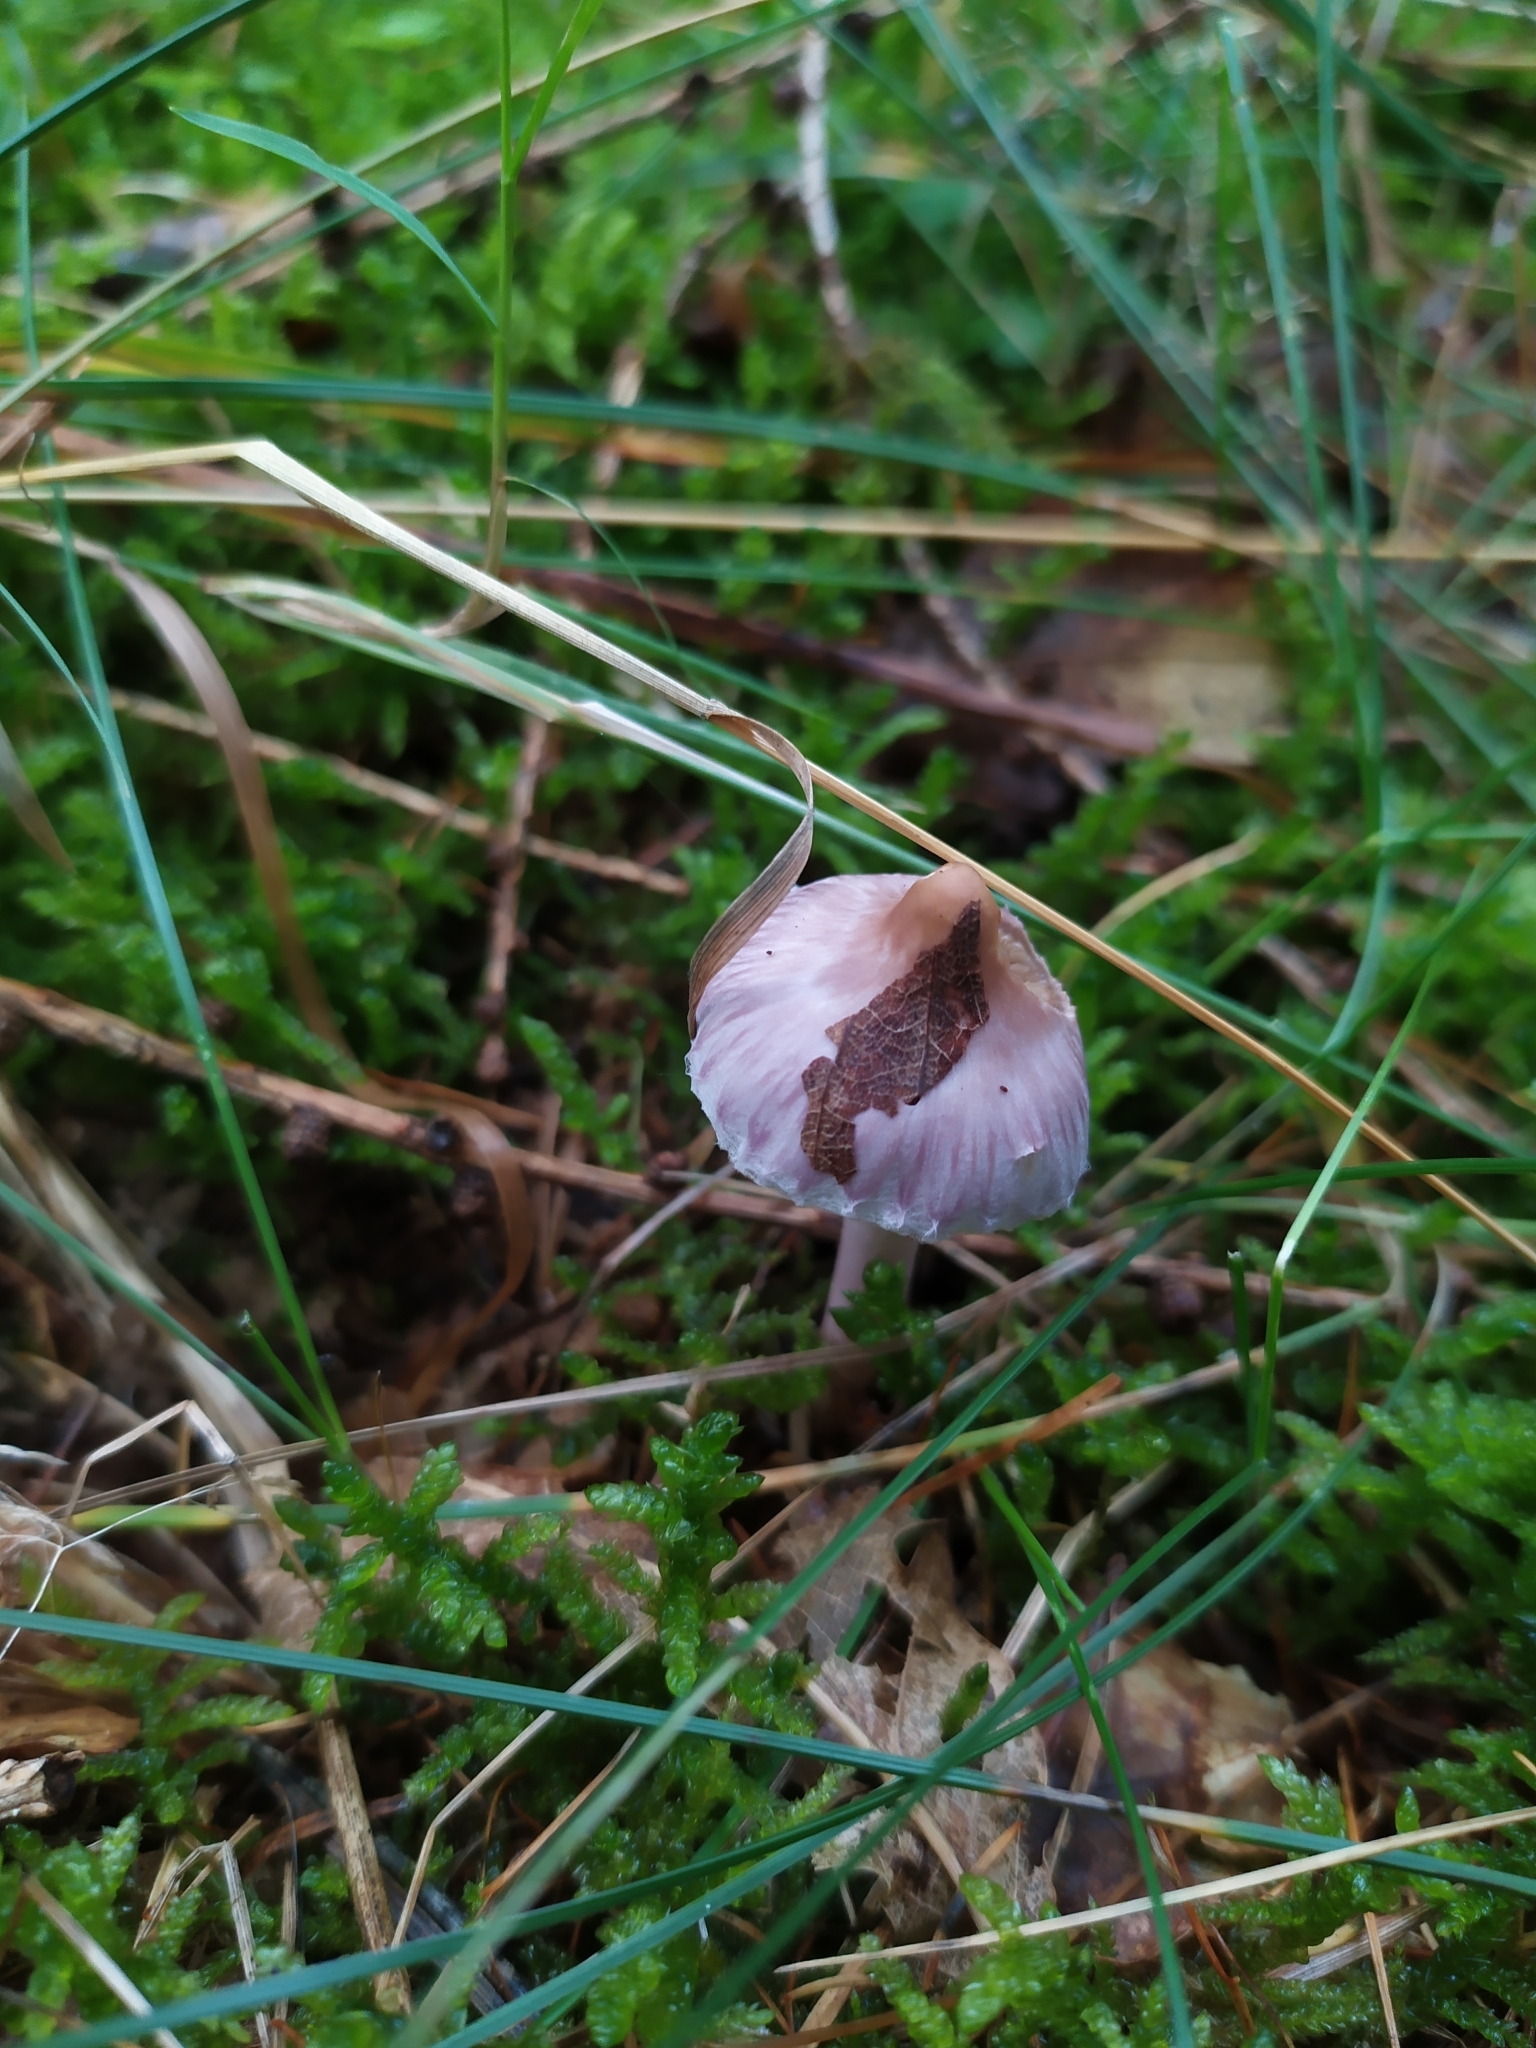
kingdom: Fungi
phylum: Basidiomycota
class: Agaricomycetes
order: Agaricales
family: Inocybaceae
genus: Inocybe
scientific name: Inocybe geophylla
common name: White fibrecap
